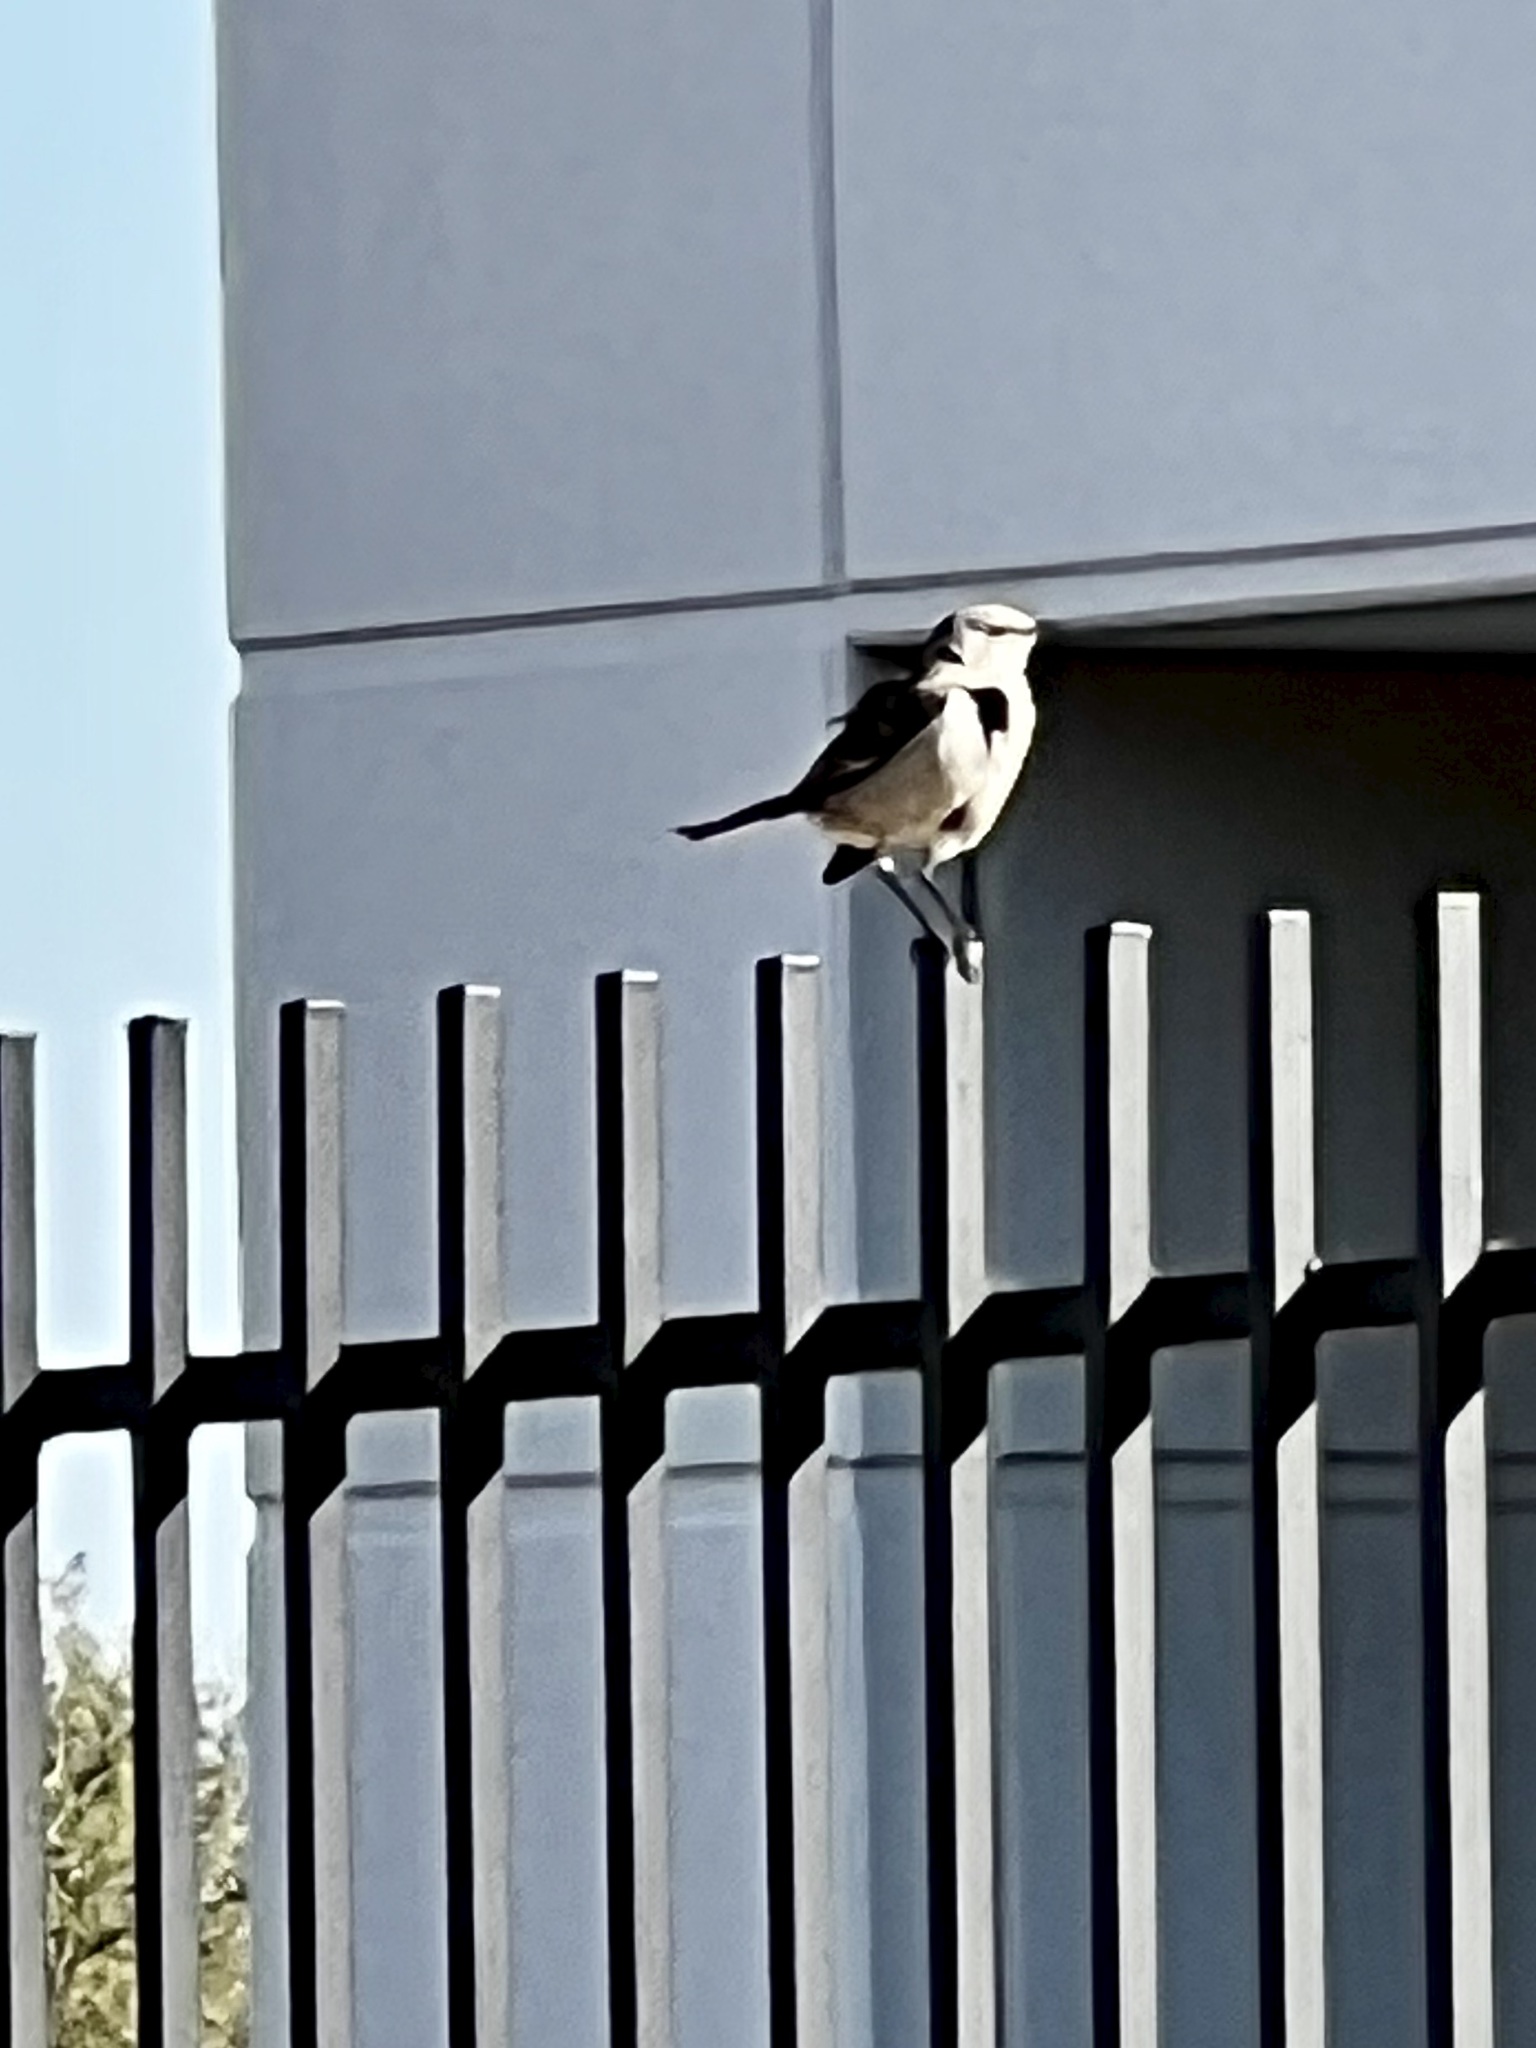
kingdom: Animalia
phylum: Chordata
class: Aves
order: Passeriformes
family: Mimidae
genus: Mimus
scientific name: Mimus polyglottos
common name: Northern mockingbird
